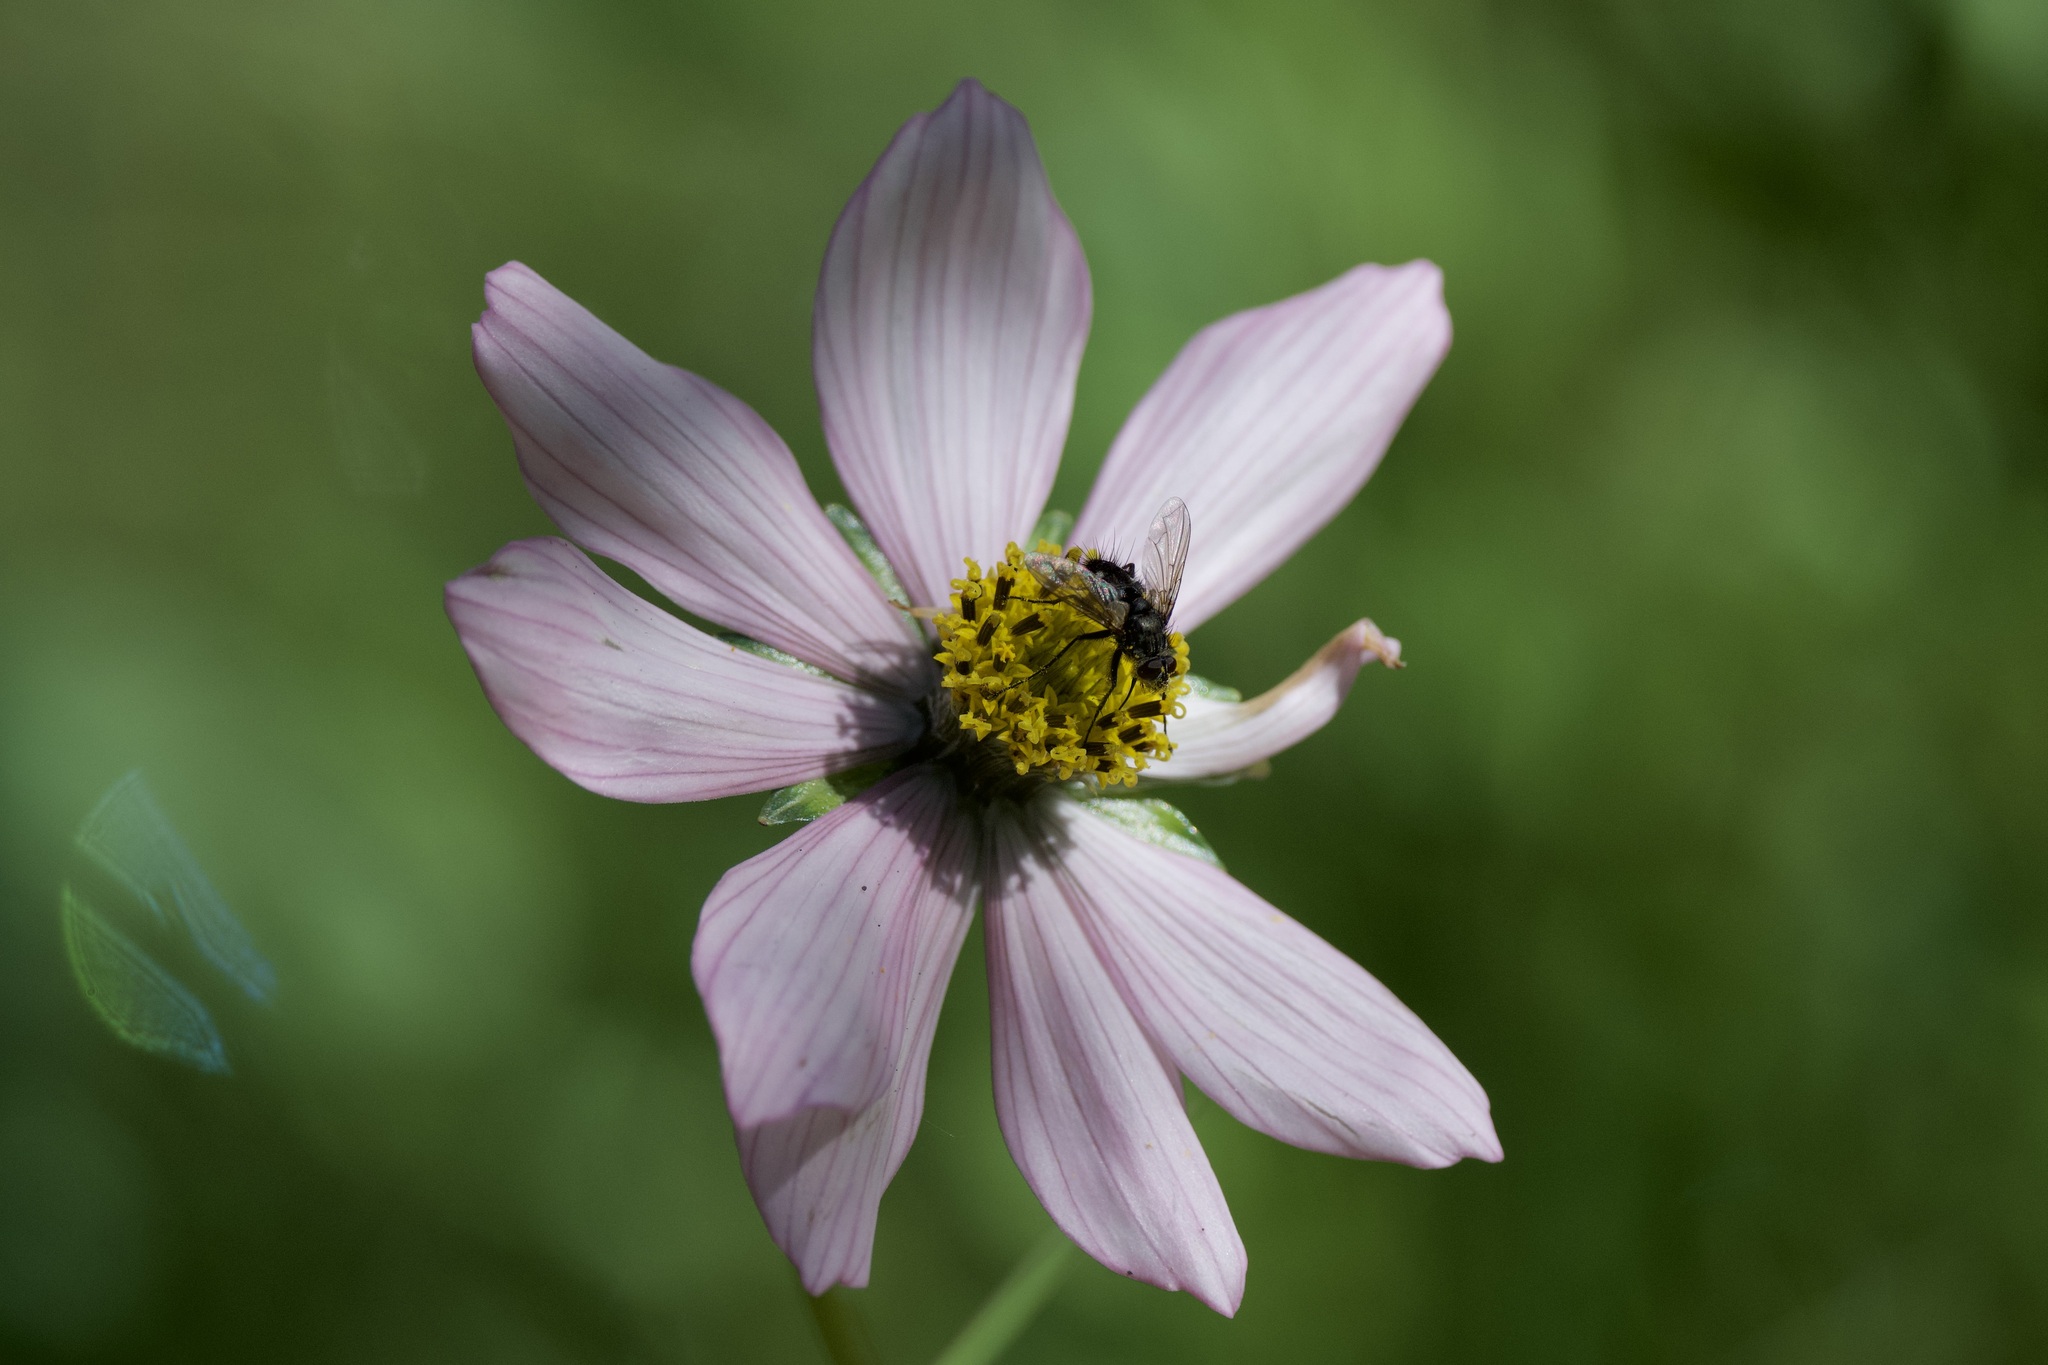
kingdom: Plantae
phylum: Tracheophyta
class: Magnoliopsida
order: Asterales
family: Asteraceae
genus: Cosmos
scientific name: Cosmos diversifolius
